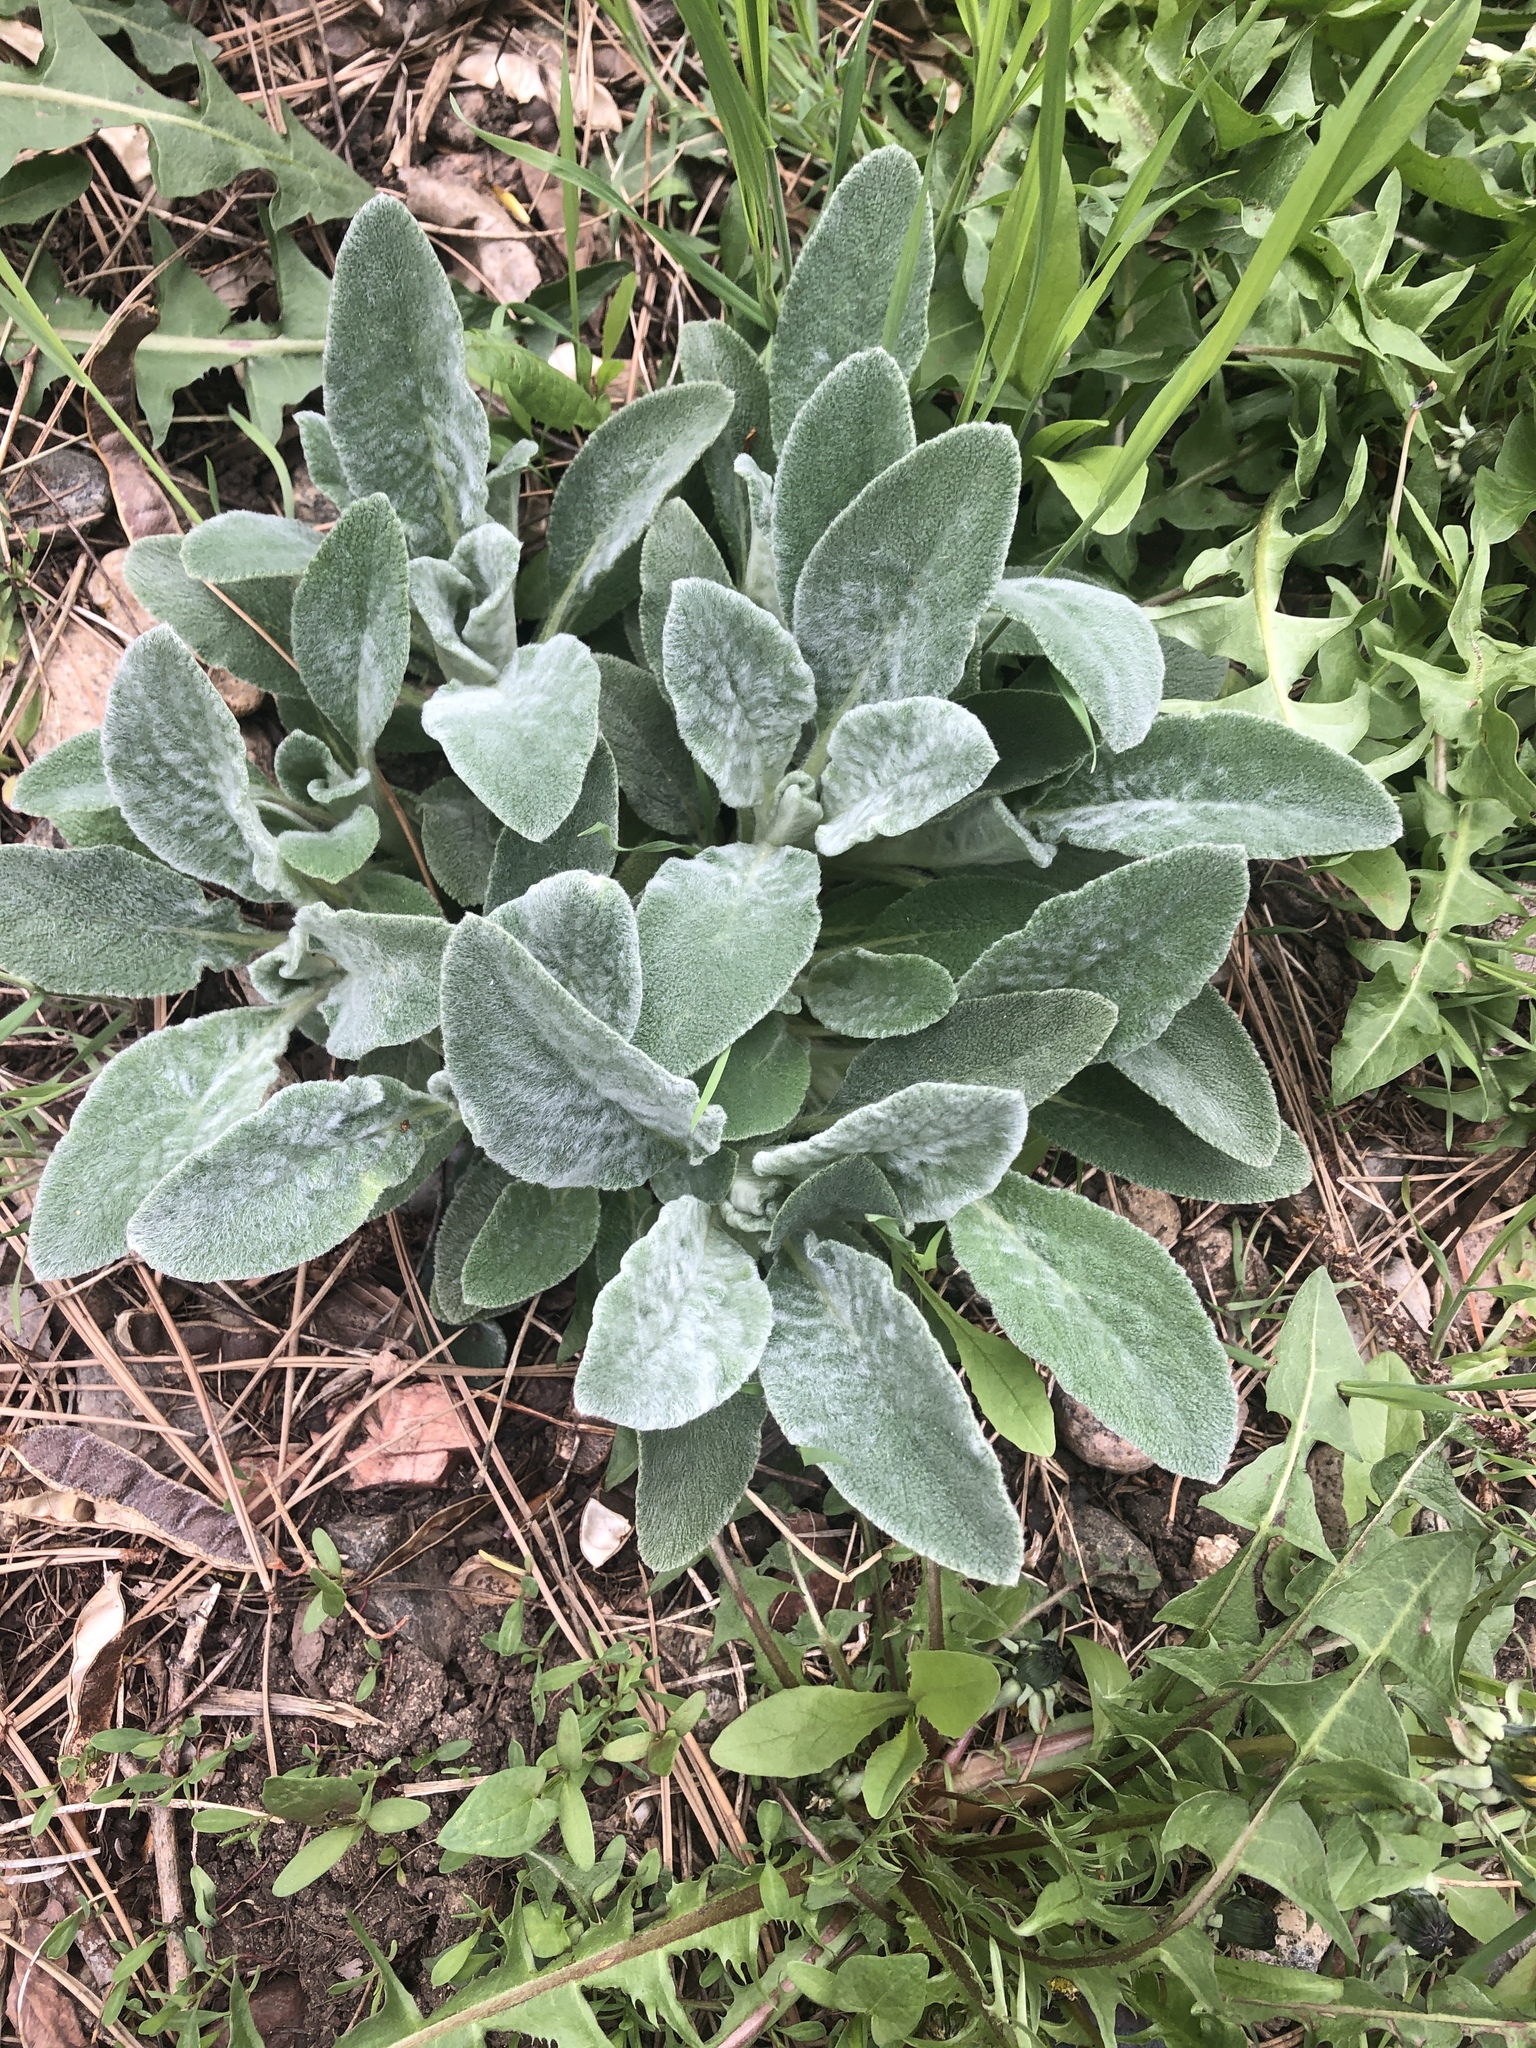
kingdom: Plantae
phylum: Tracheophyta
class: Magnoliopsida
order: Lamiales
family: Lamiaceae
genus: Stachys
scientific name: Stachys byzantina
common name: Lamb's-ear
